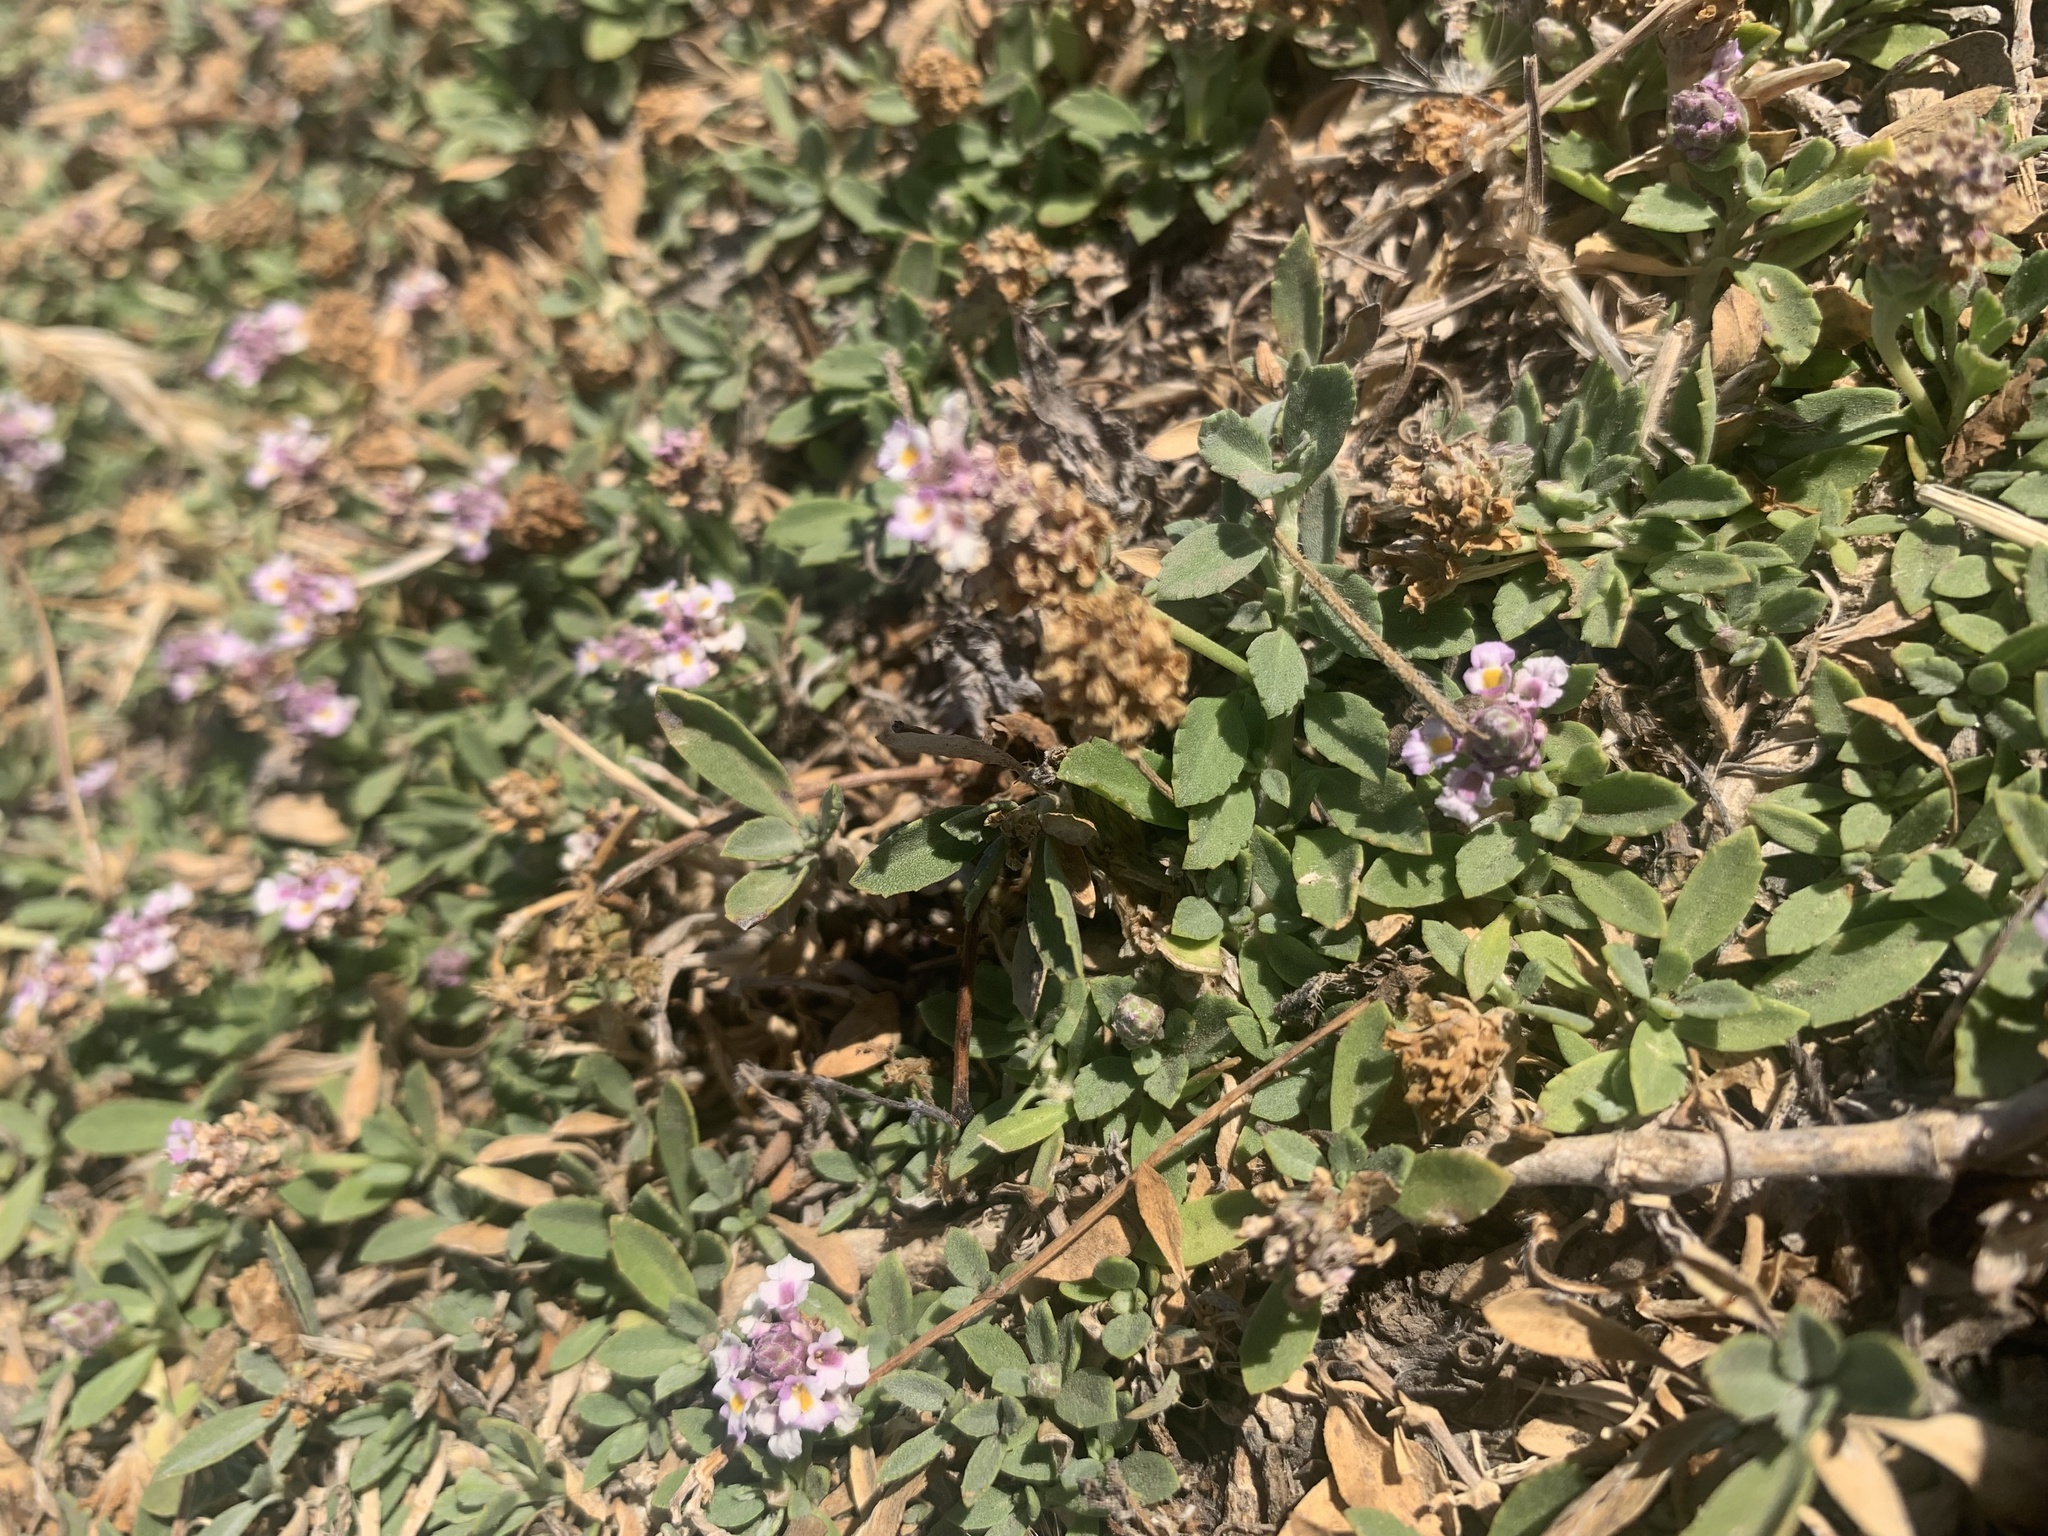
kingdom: Plantae
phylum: Tracheophyta
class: Magnoliopsida
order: Lamiales
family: Verbenaceae
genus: Phyla
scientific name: Phyla nodiflora
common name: Frogfruit
